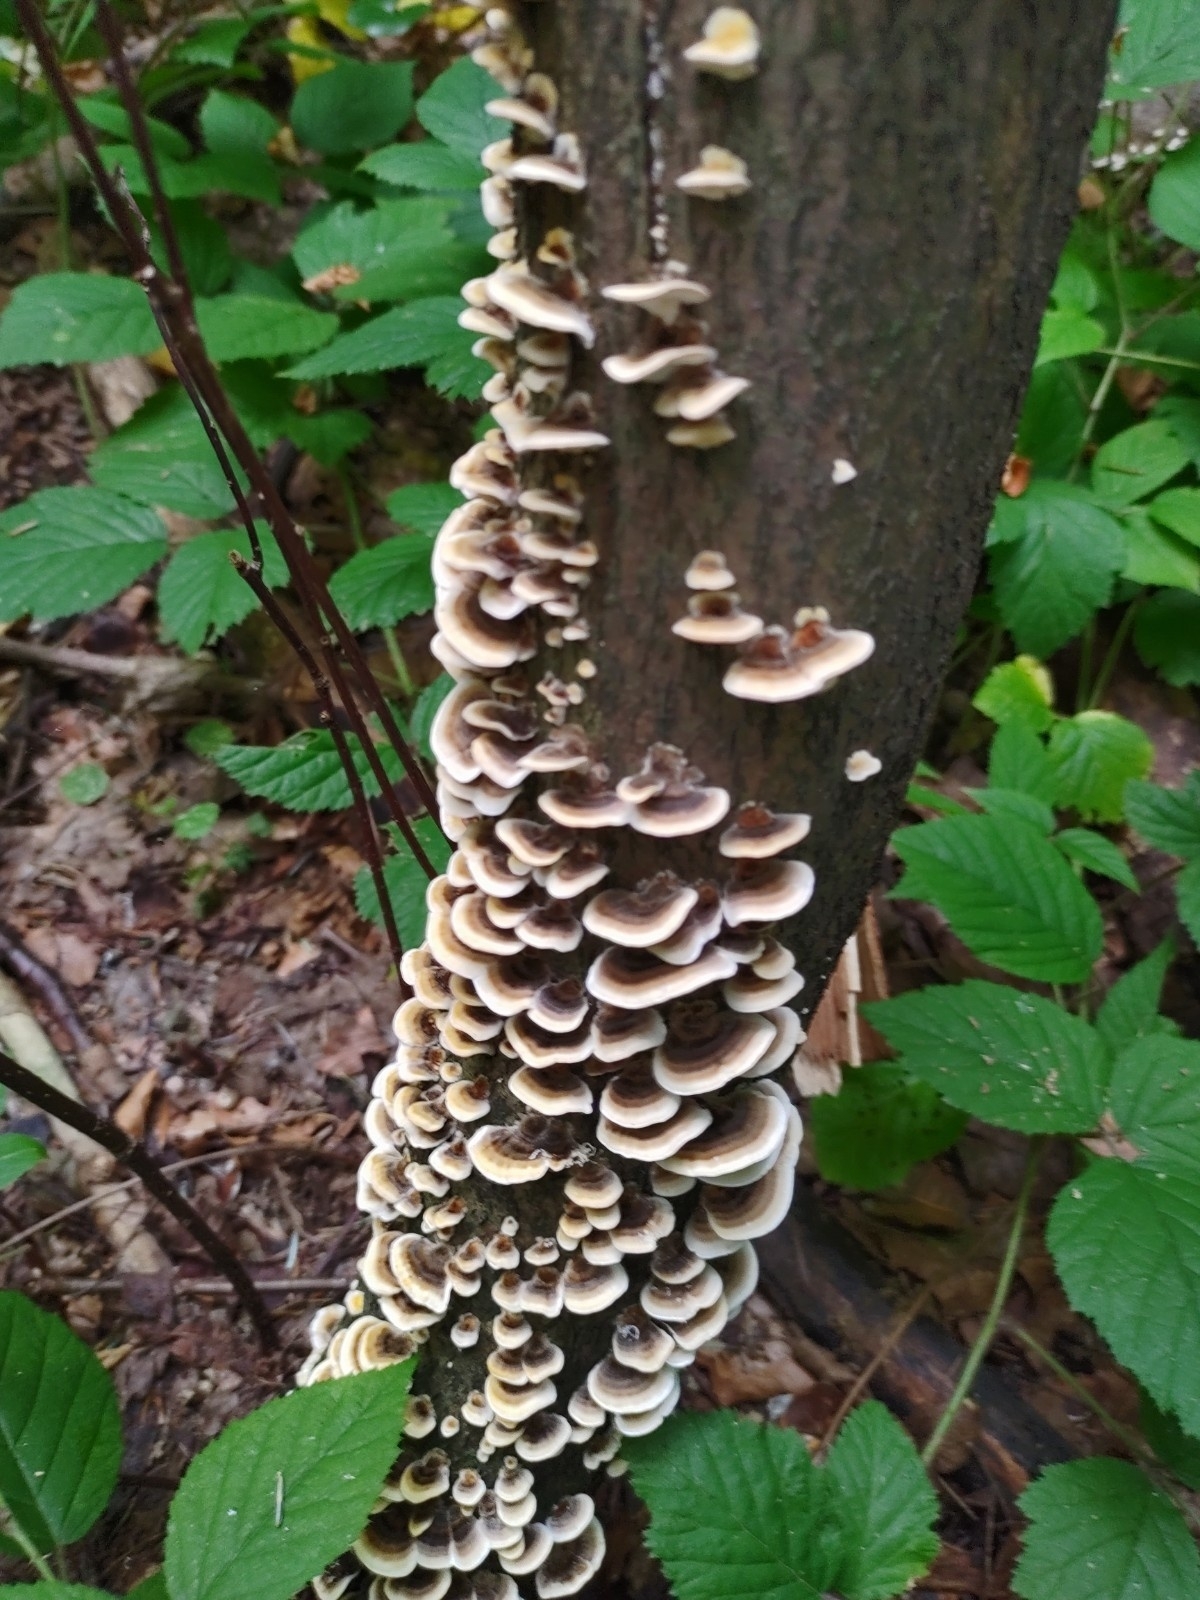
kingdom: Fungi
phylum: Basidiomycota
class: Agaricomycetes
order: Polyporales
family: Polyporaceae
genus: Trametes
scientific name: Trametes versicolor
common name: Turkeytail
